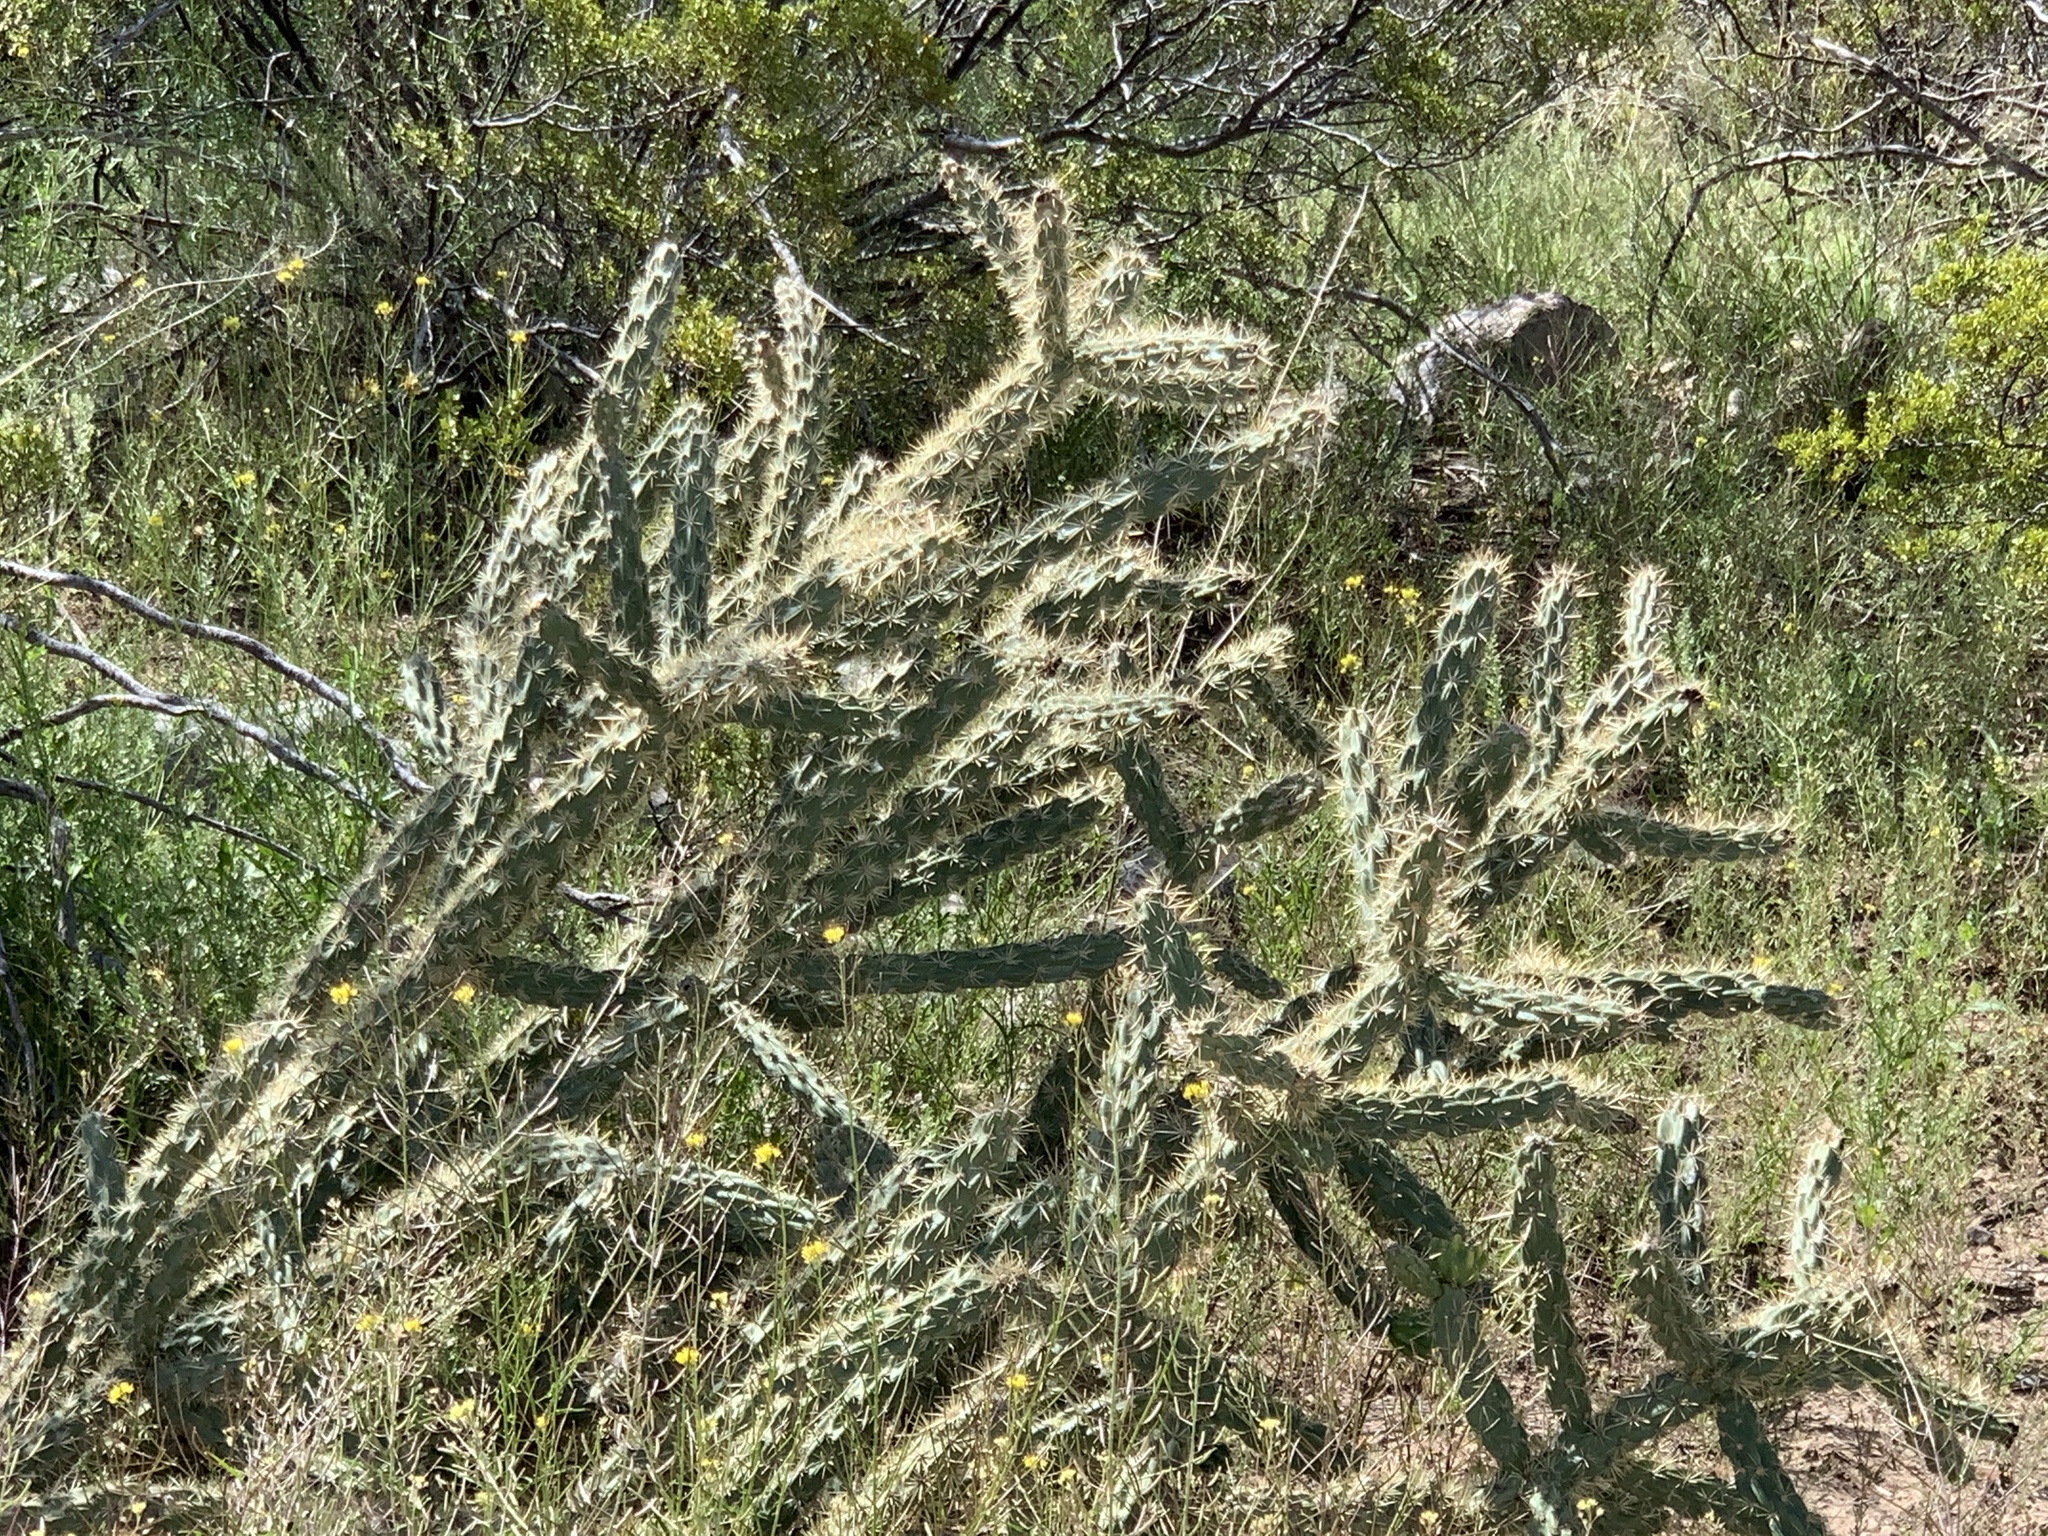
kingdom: Plantae
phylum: Tracheophyta
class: Magnoliopsida
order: Caryophyllales
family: Cactaceae
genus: Cylindropuntia
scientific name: Cylindropuntia imbricata
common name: Candelabrum cactus
